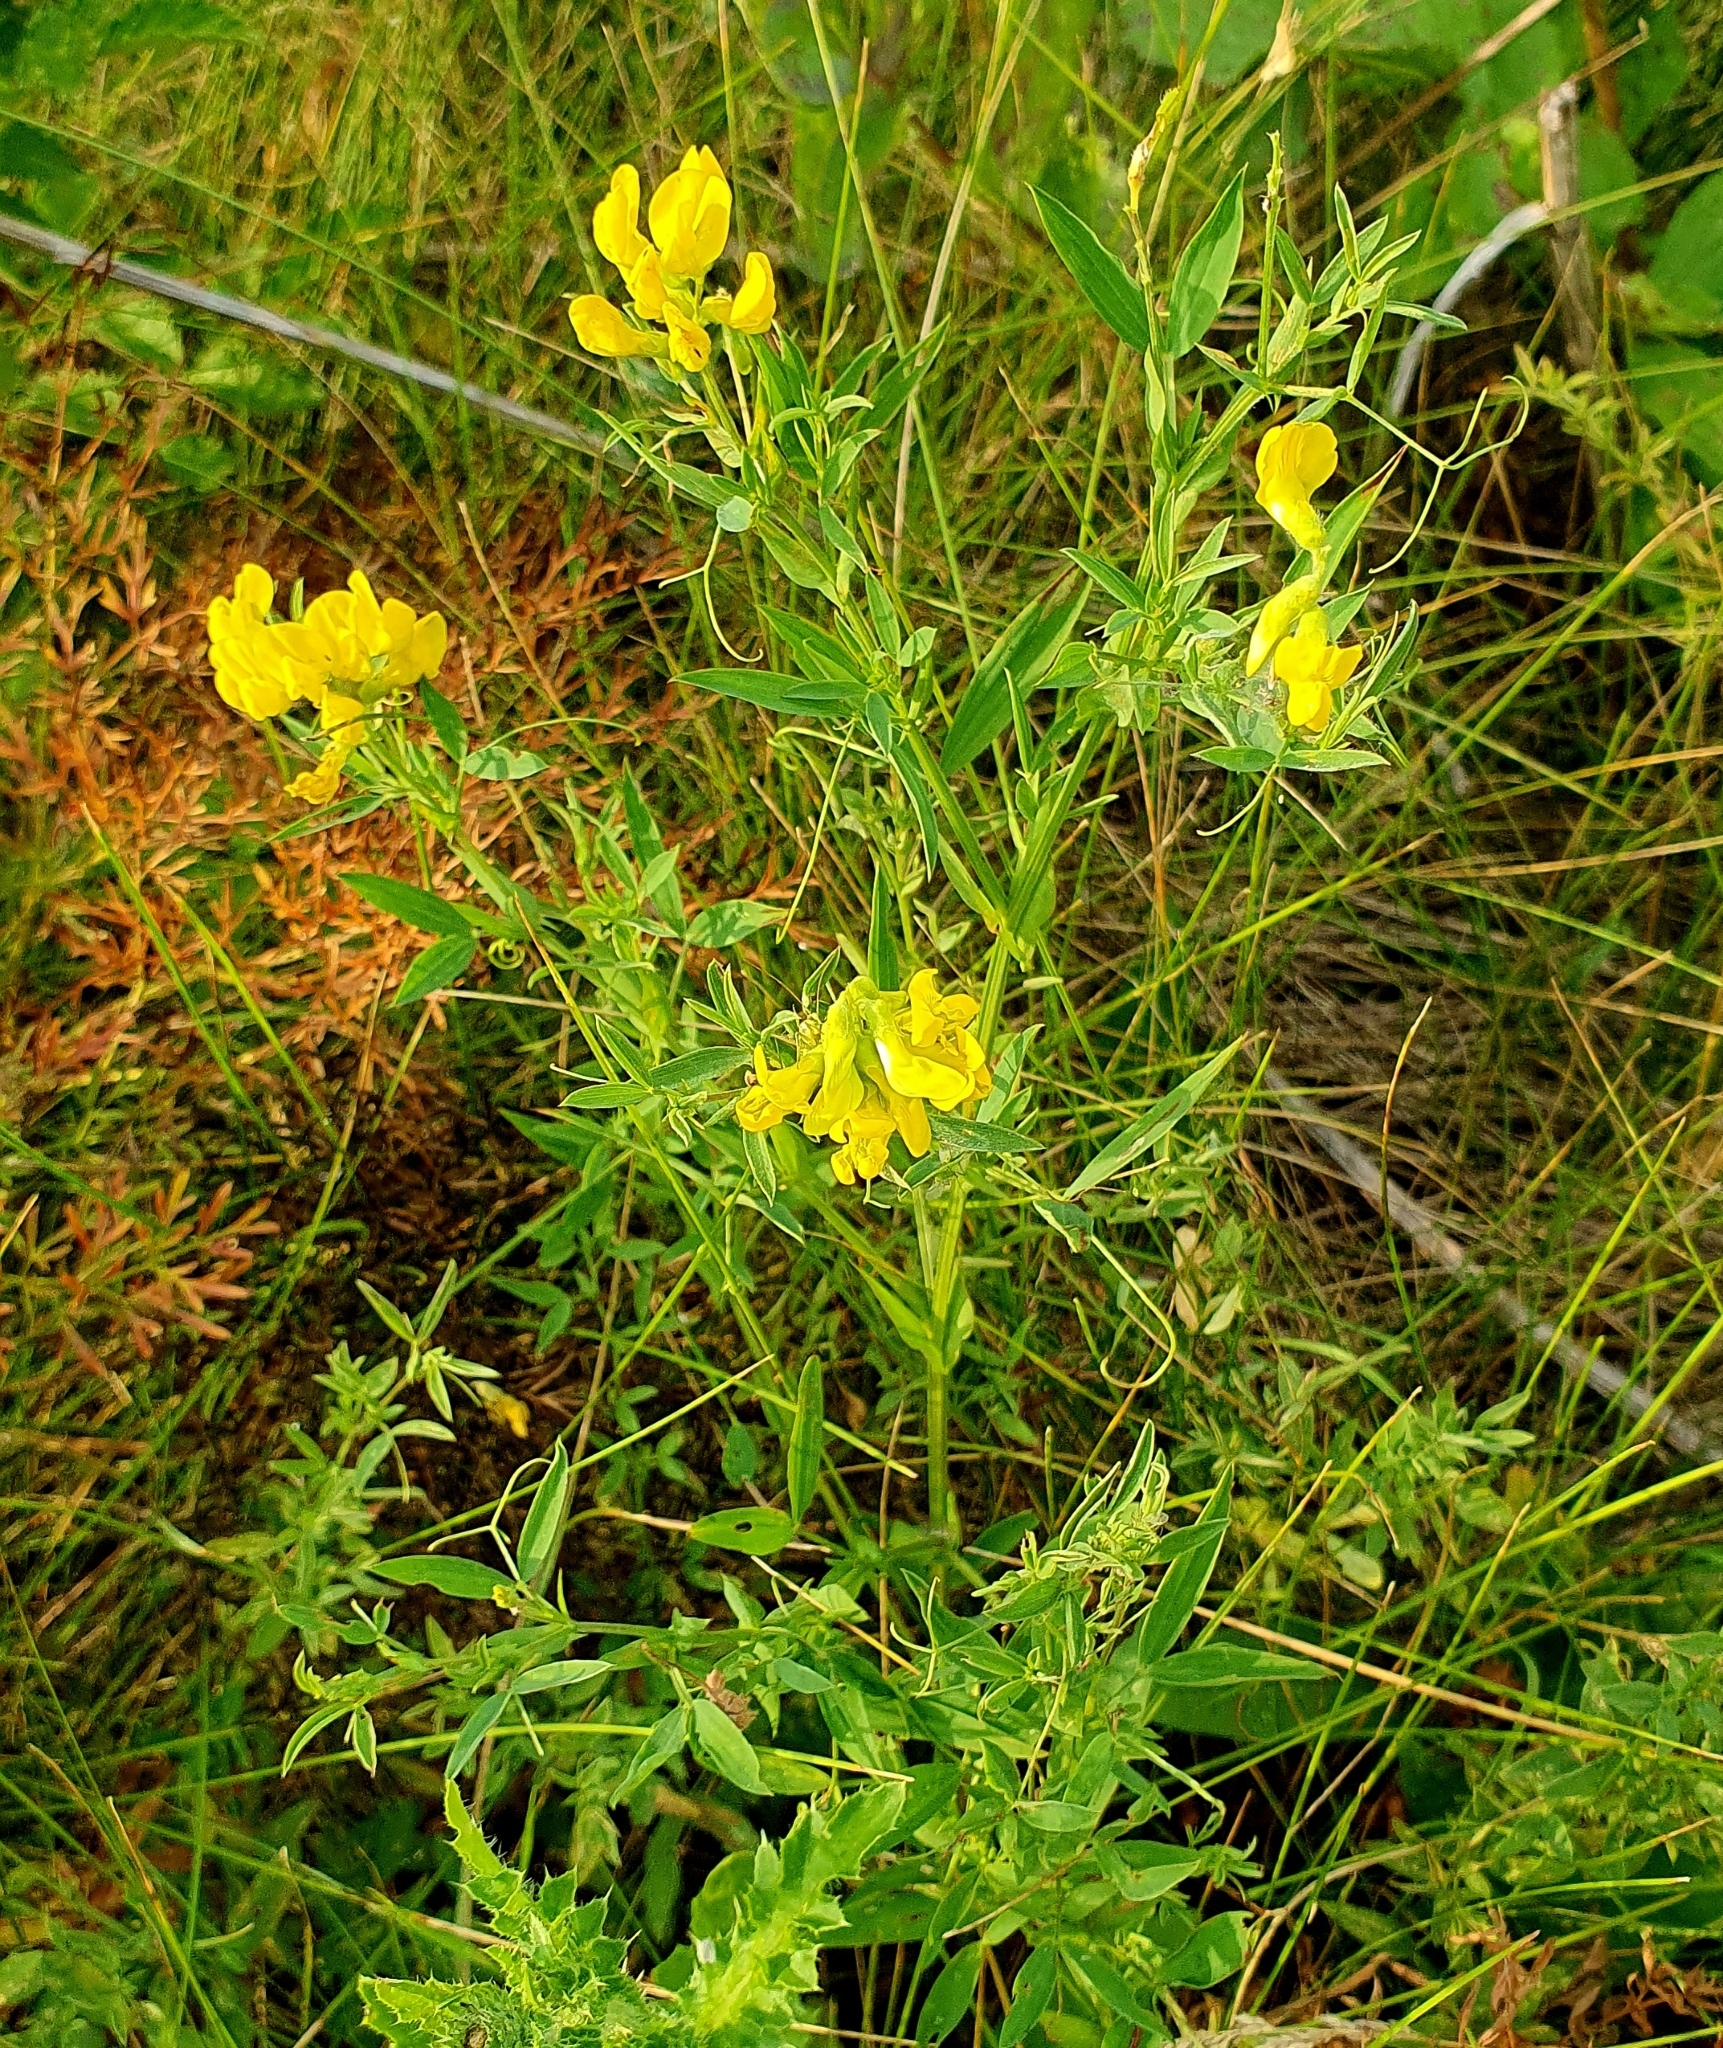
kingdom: Plantae
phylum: Tracheophyta
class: Magnoliopsida
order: Fabales
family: Fabaceae
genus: Lathyrus
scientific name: Lathyrus pratensis
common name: Meadow vetchling
